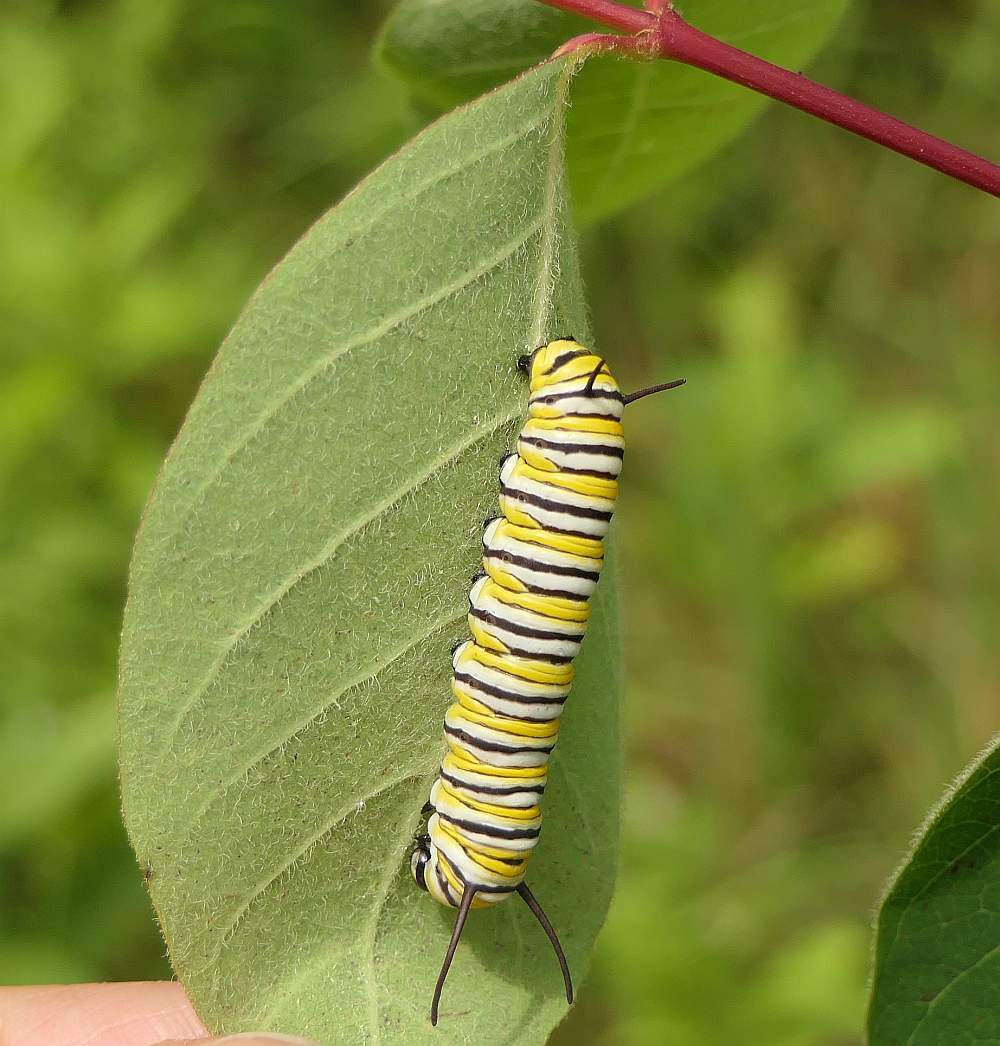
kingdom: Animalia
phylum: Arthropoda
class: Insecta
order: Lepidoptera
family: Nymphalidae
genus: Danaus
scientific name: Danaus plexippus
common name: Monarch
